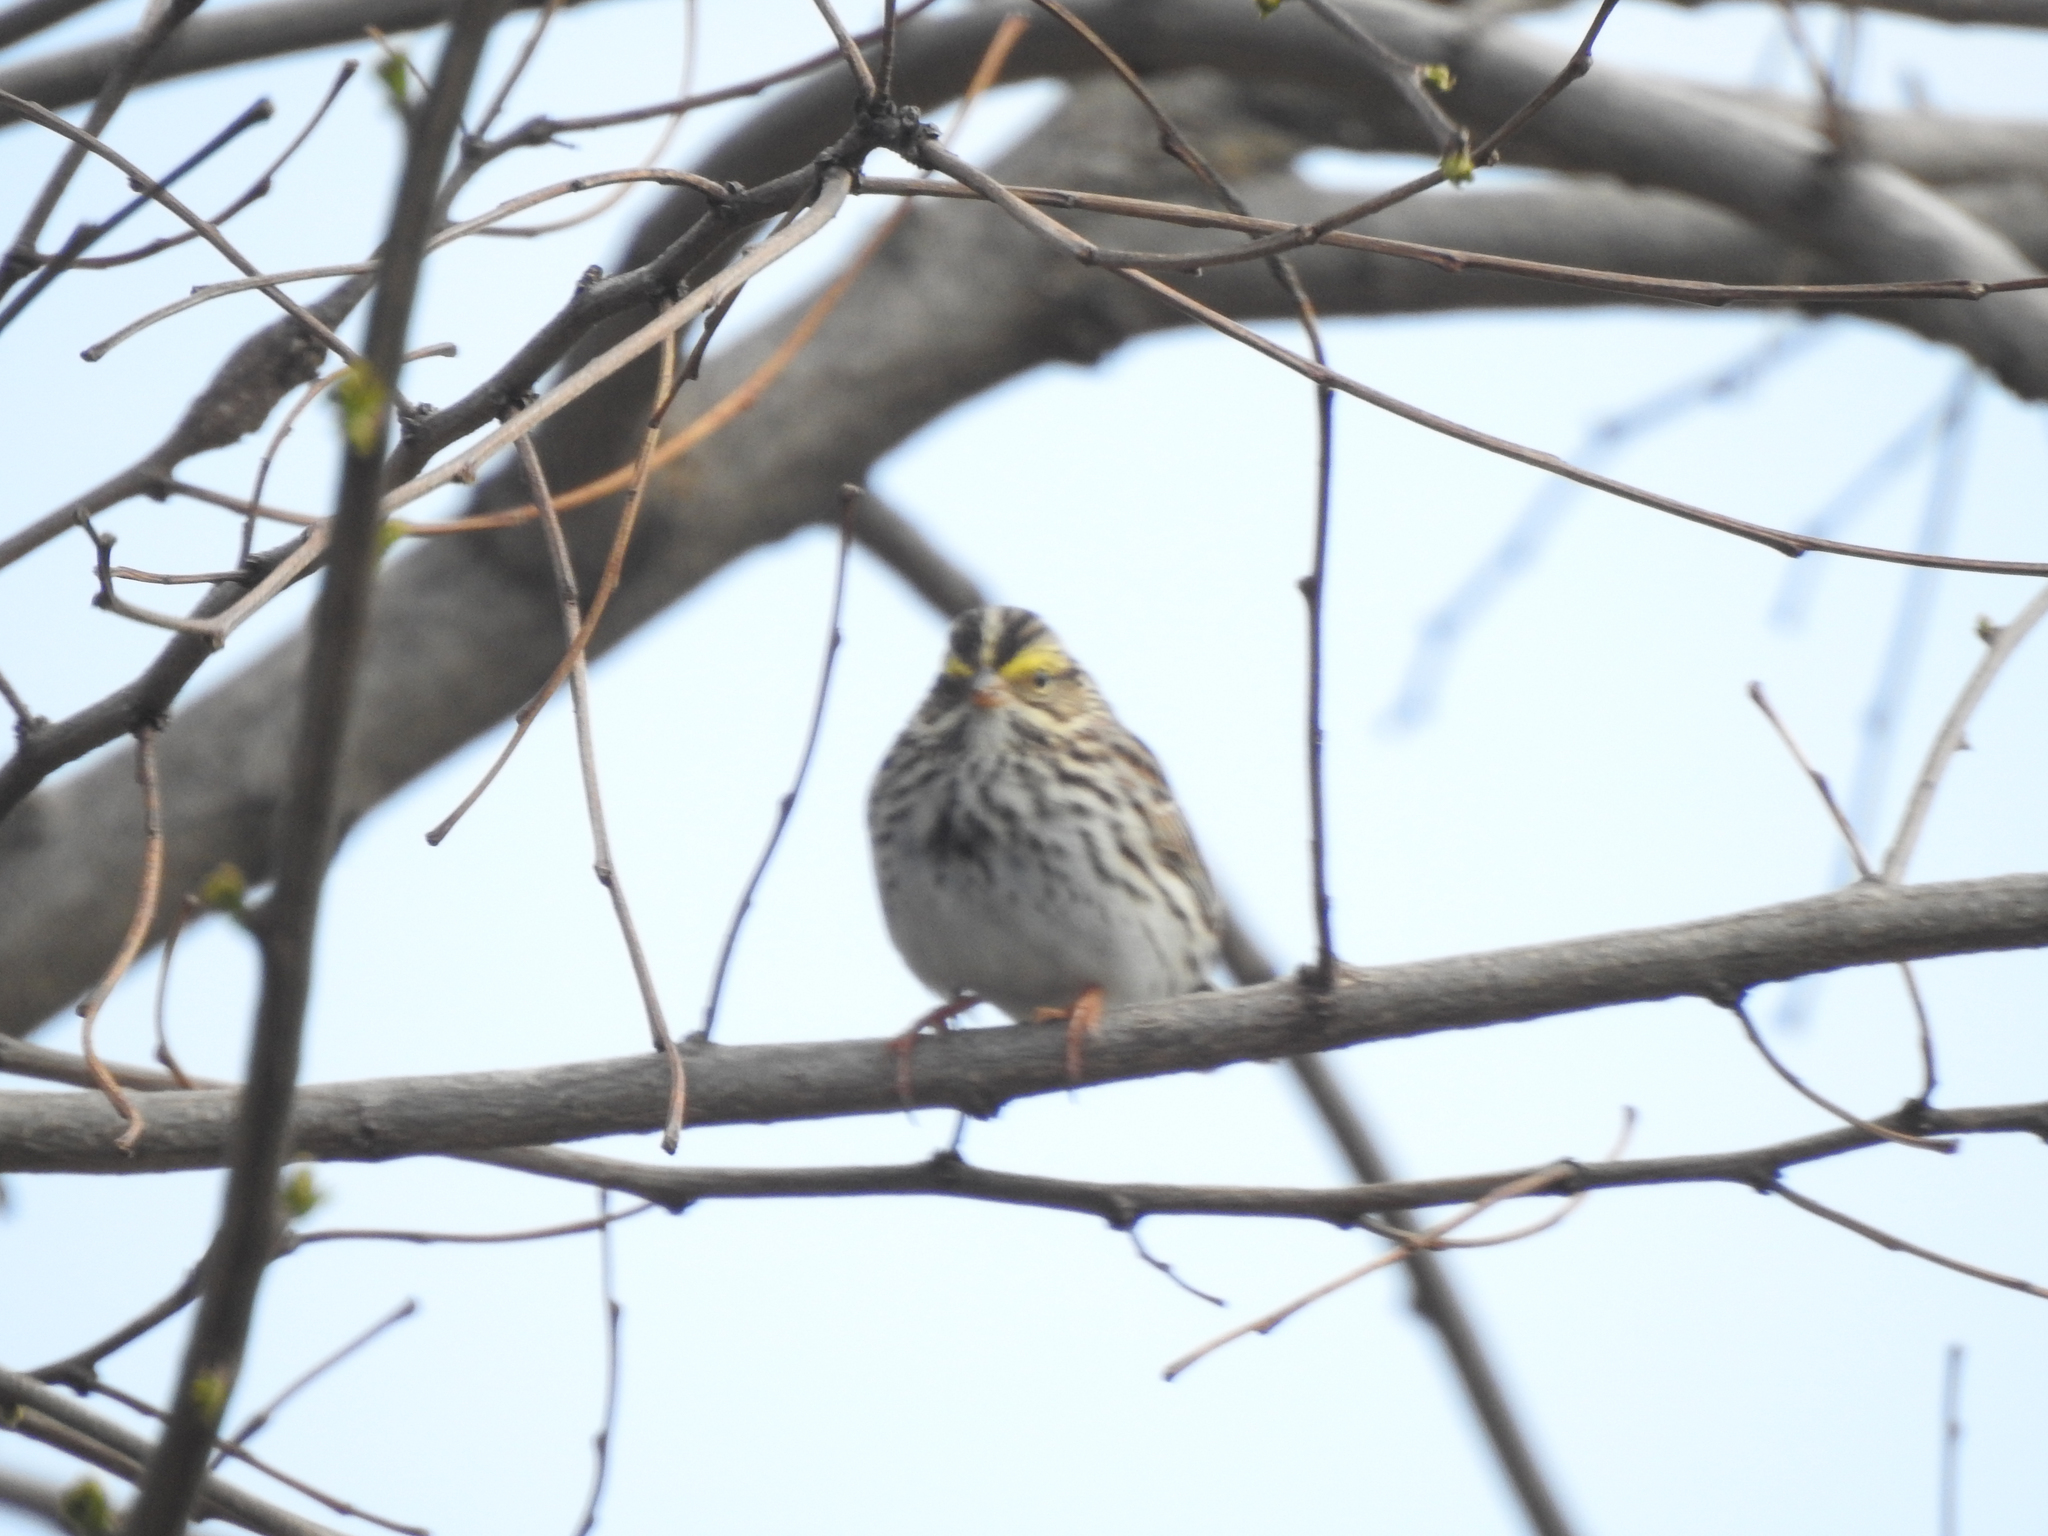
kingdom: Animalia
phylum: Chordata
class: Aves
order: Passeriformes
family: Passerellidae
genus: Passerculus
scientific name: Passerculus sandwichensis
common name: Savannah sparrow
